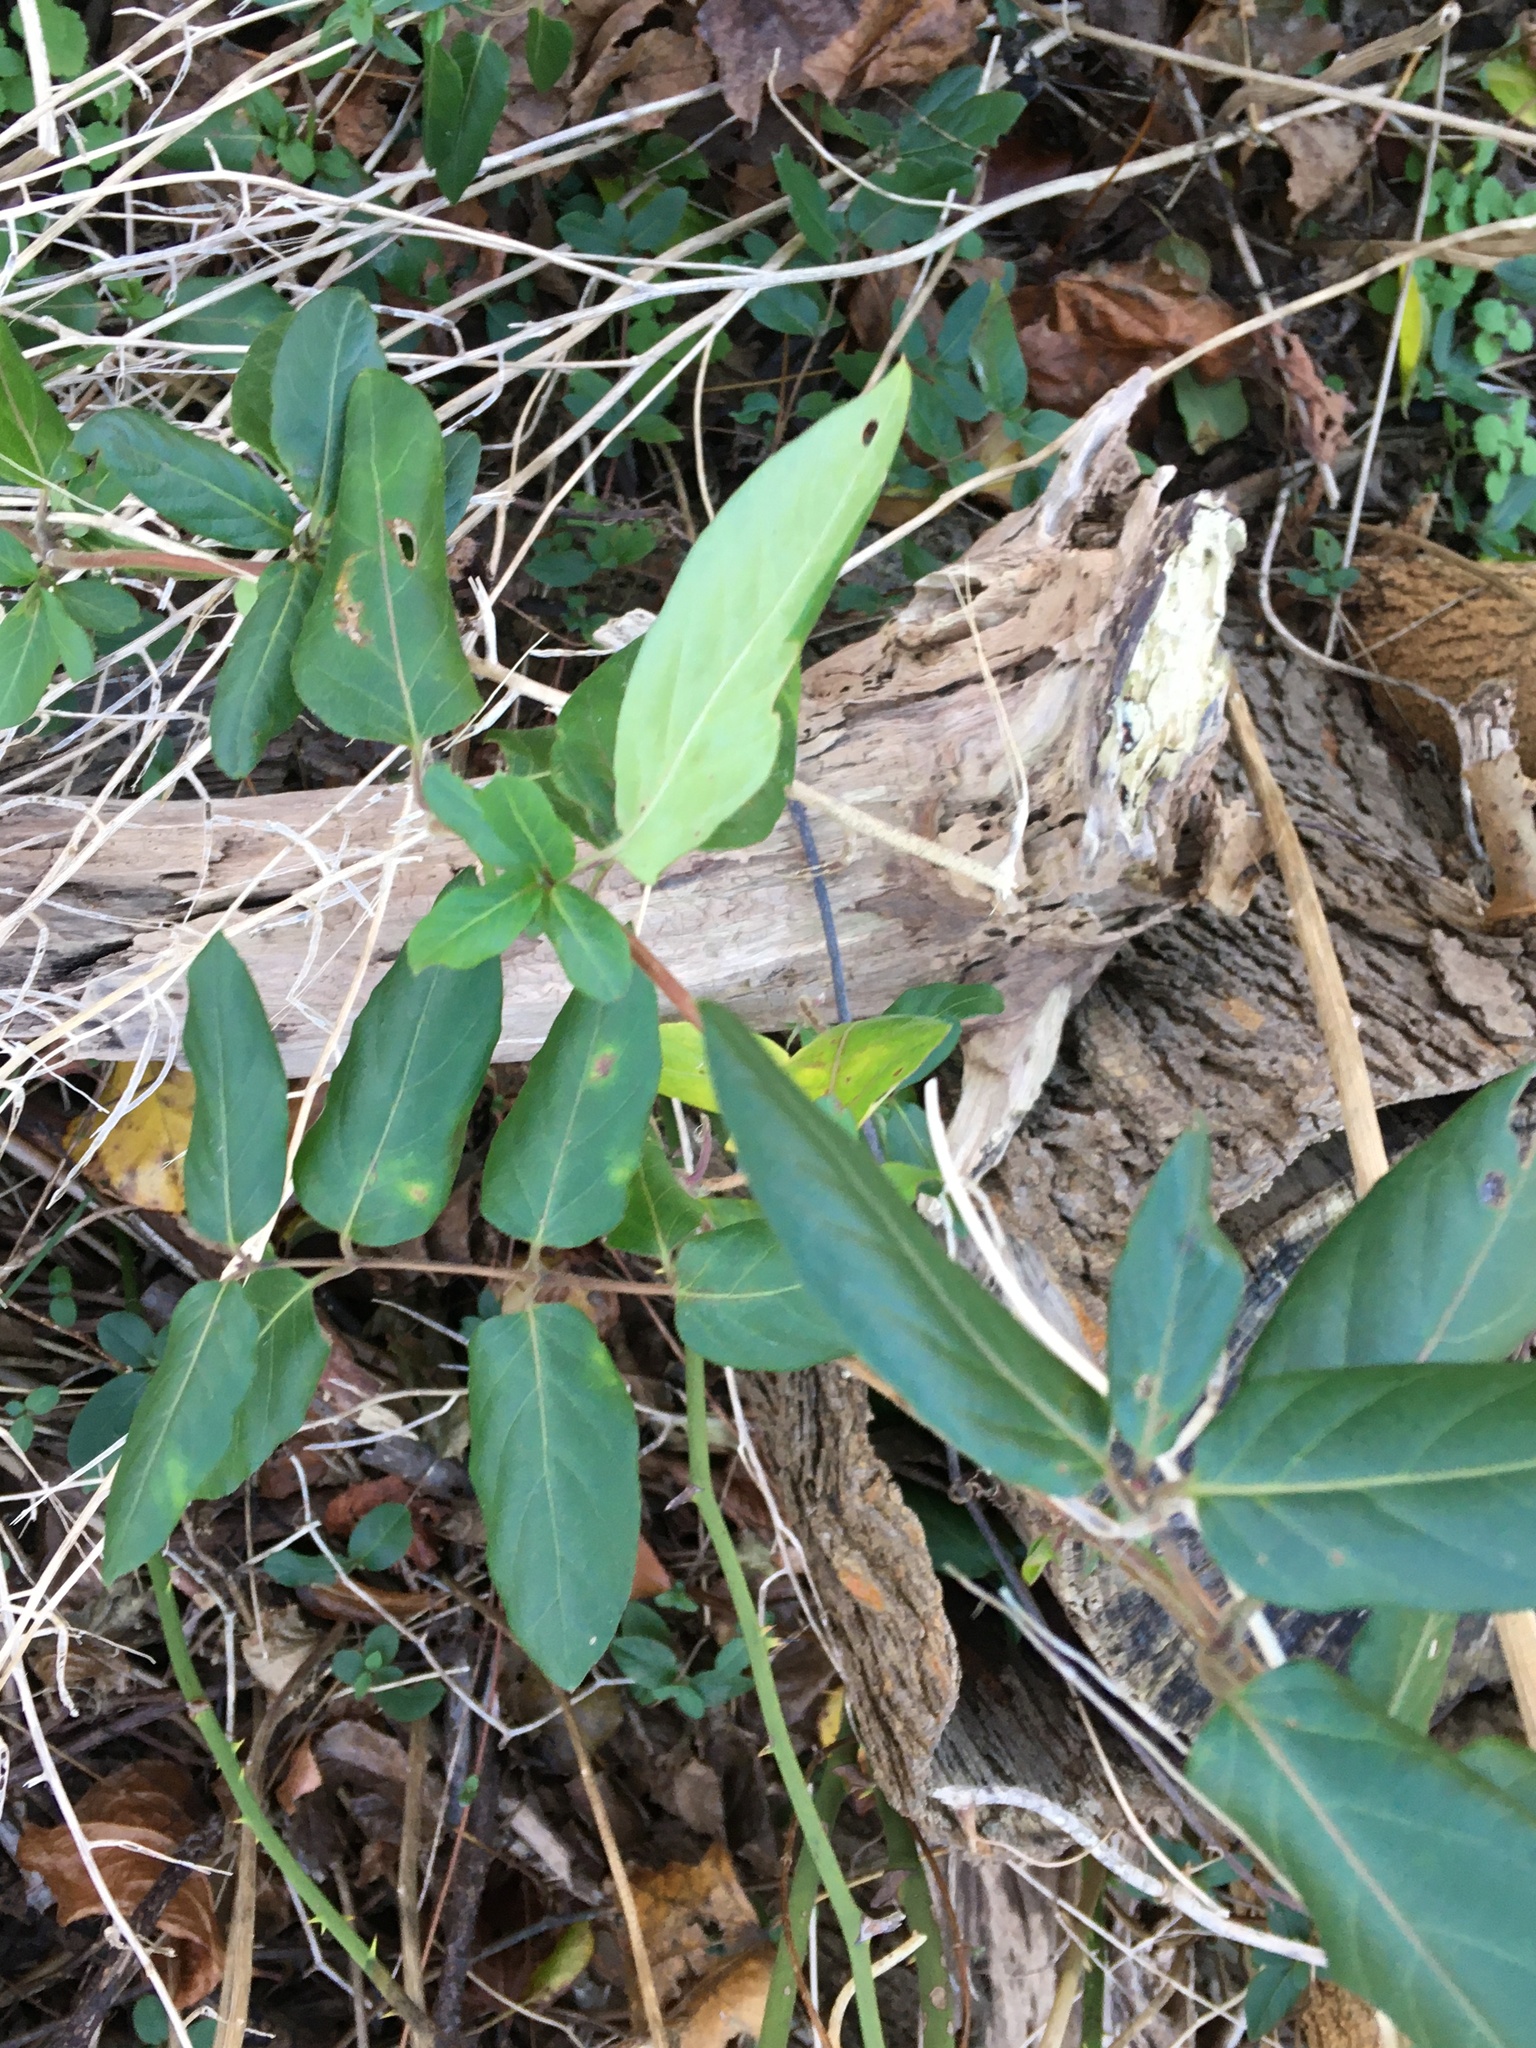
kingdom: Plantae
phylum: Tracheophyta
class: Magnoliopsida
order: Dipsacales
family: Caprifoliaceae
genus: Lonicera
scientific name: Lonicera japonica
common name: Japanese honeysuckle
